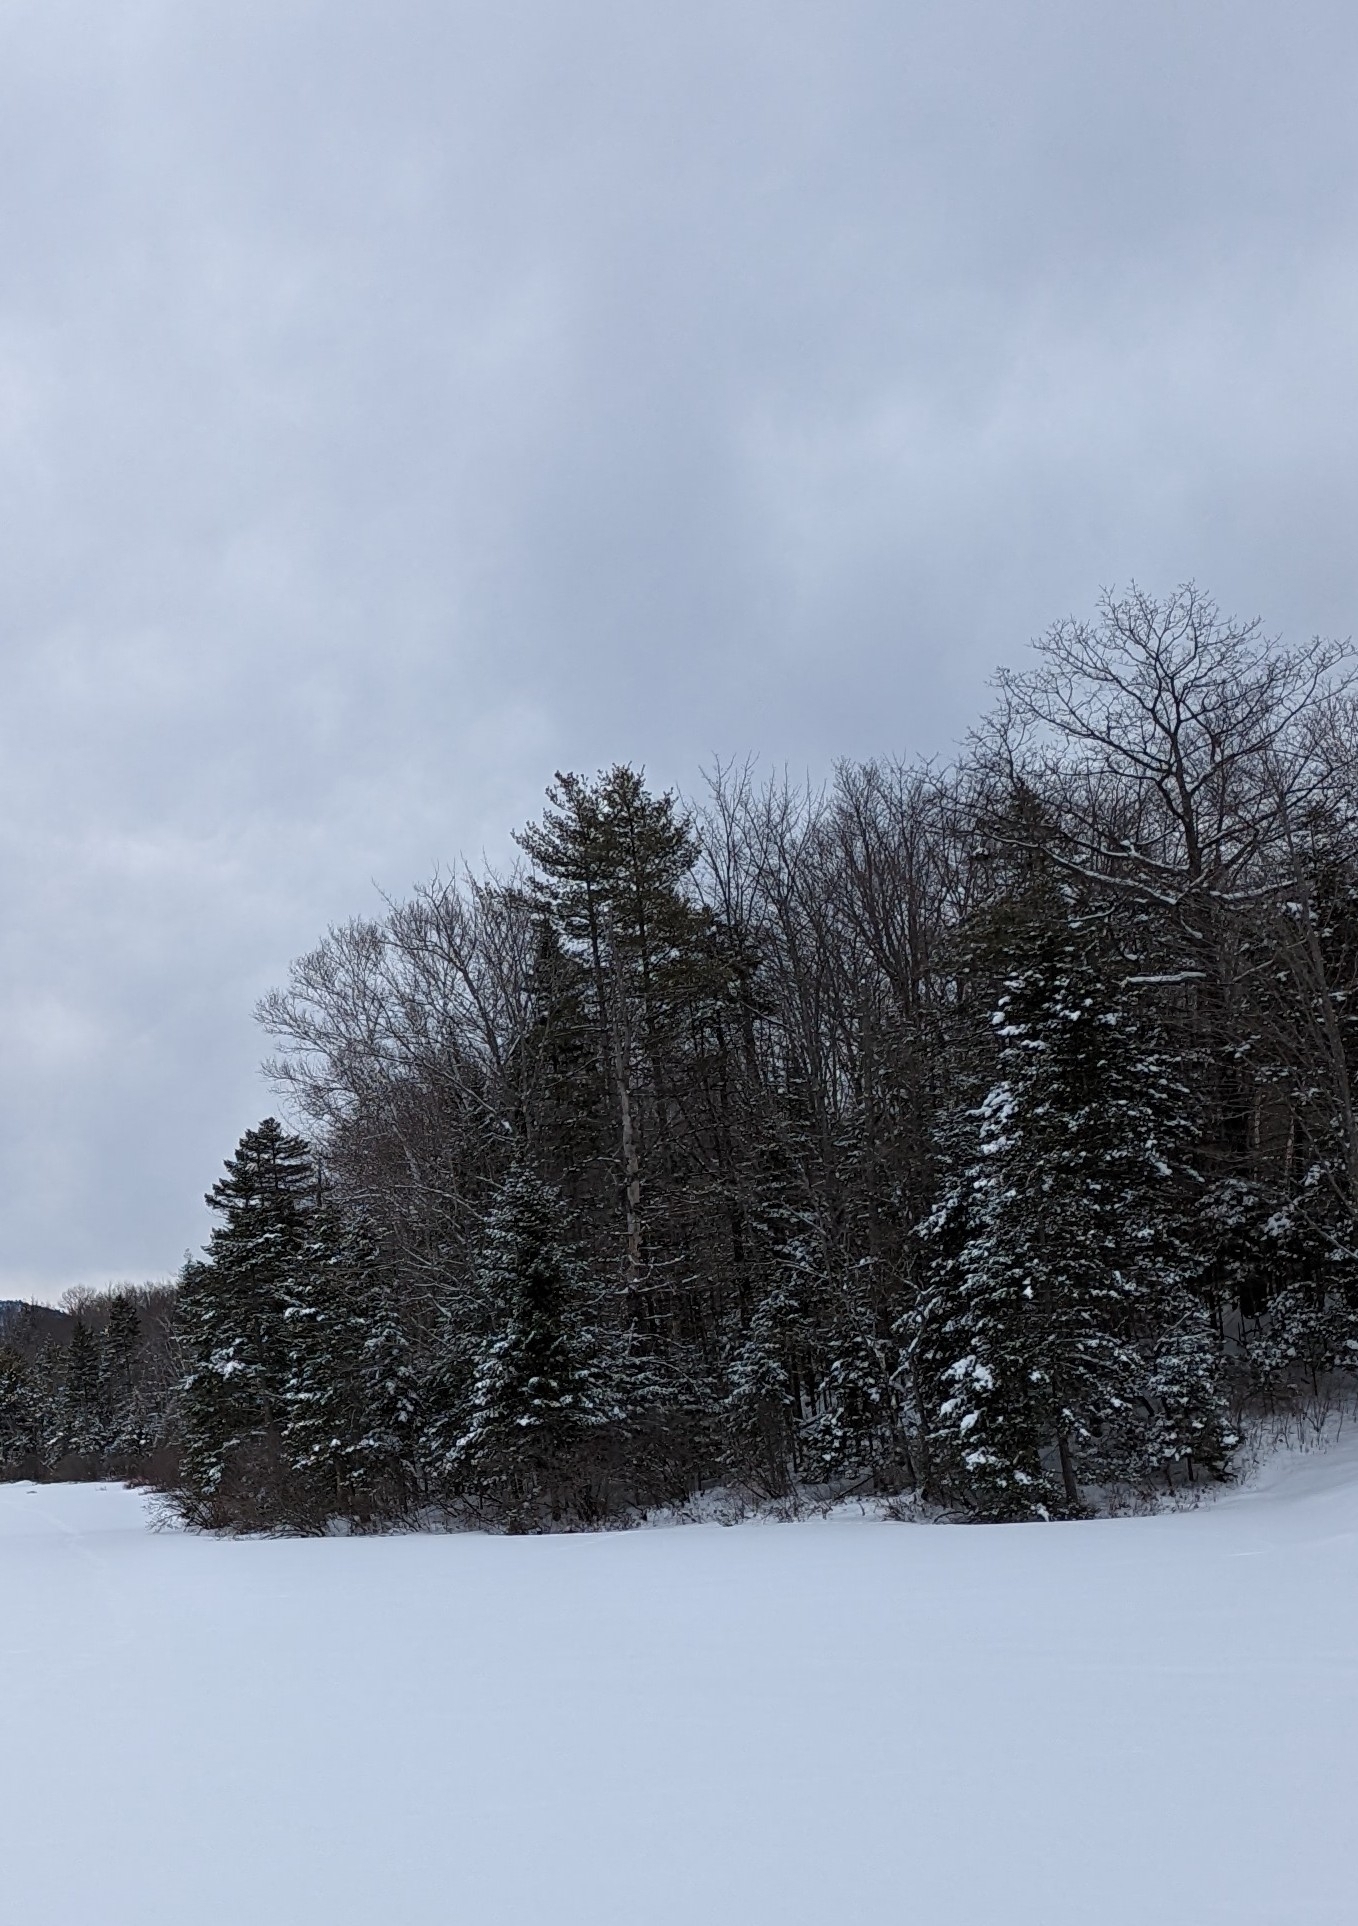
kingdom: Plantae
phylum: Tracheophyta
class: Pinopsida
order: Pinales
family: Pinaceae
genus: Pinus
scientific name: Pinus strobus
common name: Weymouth pine
